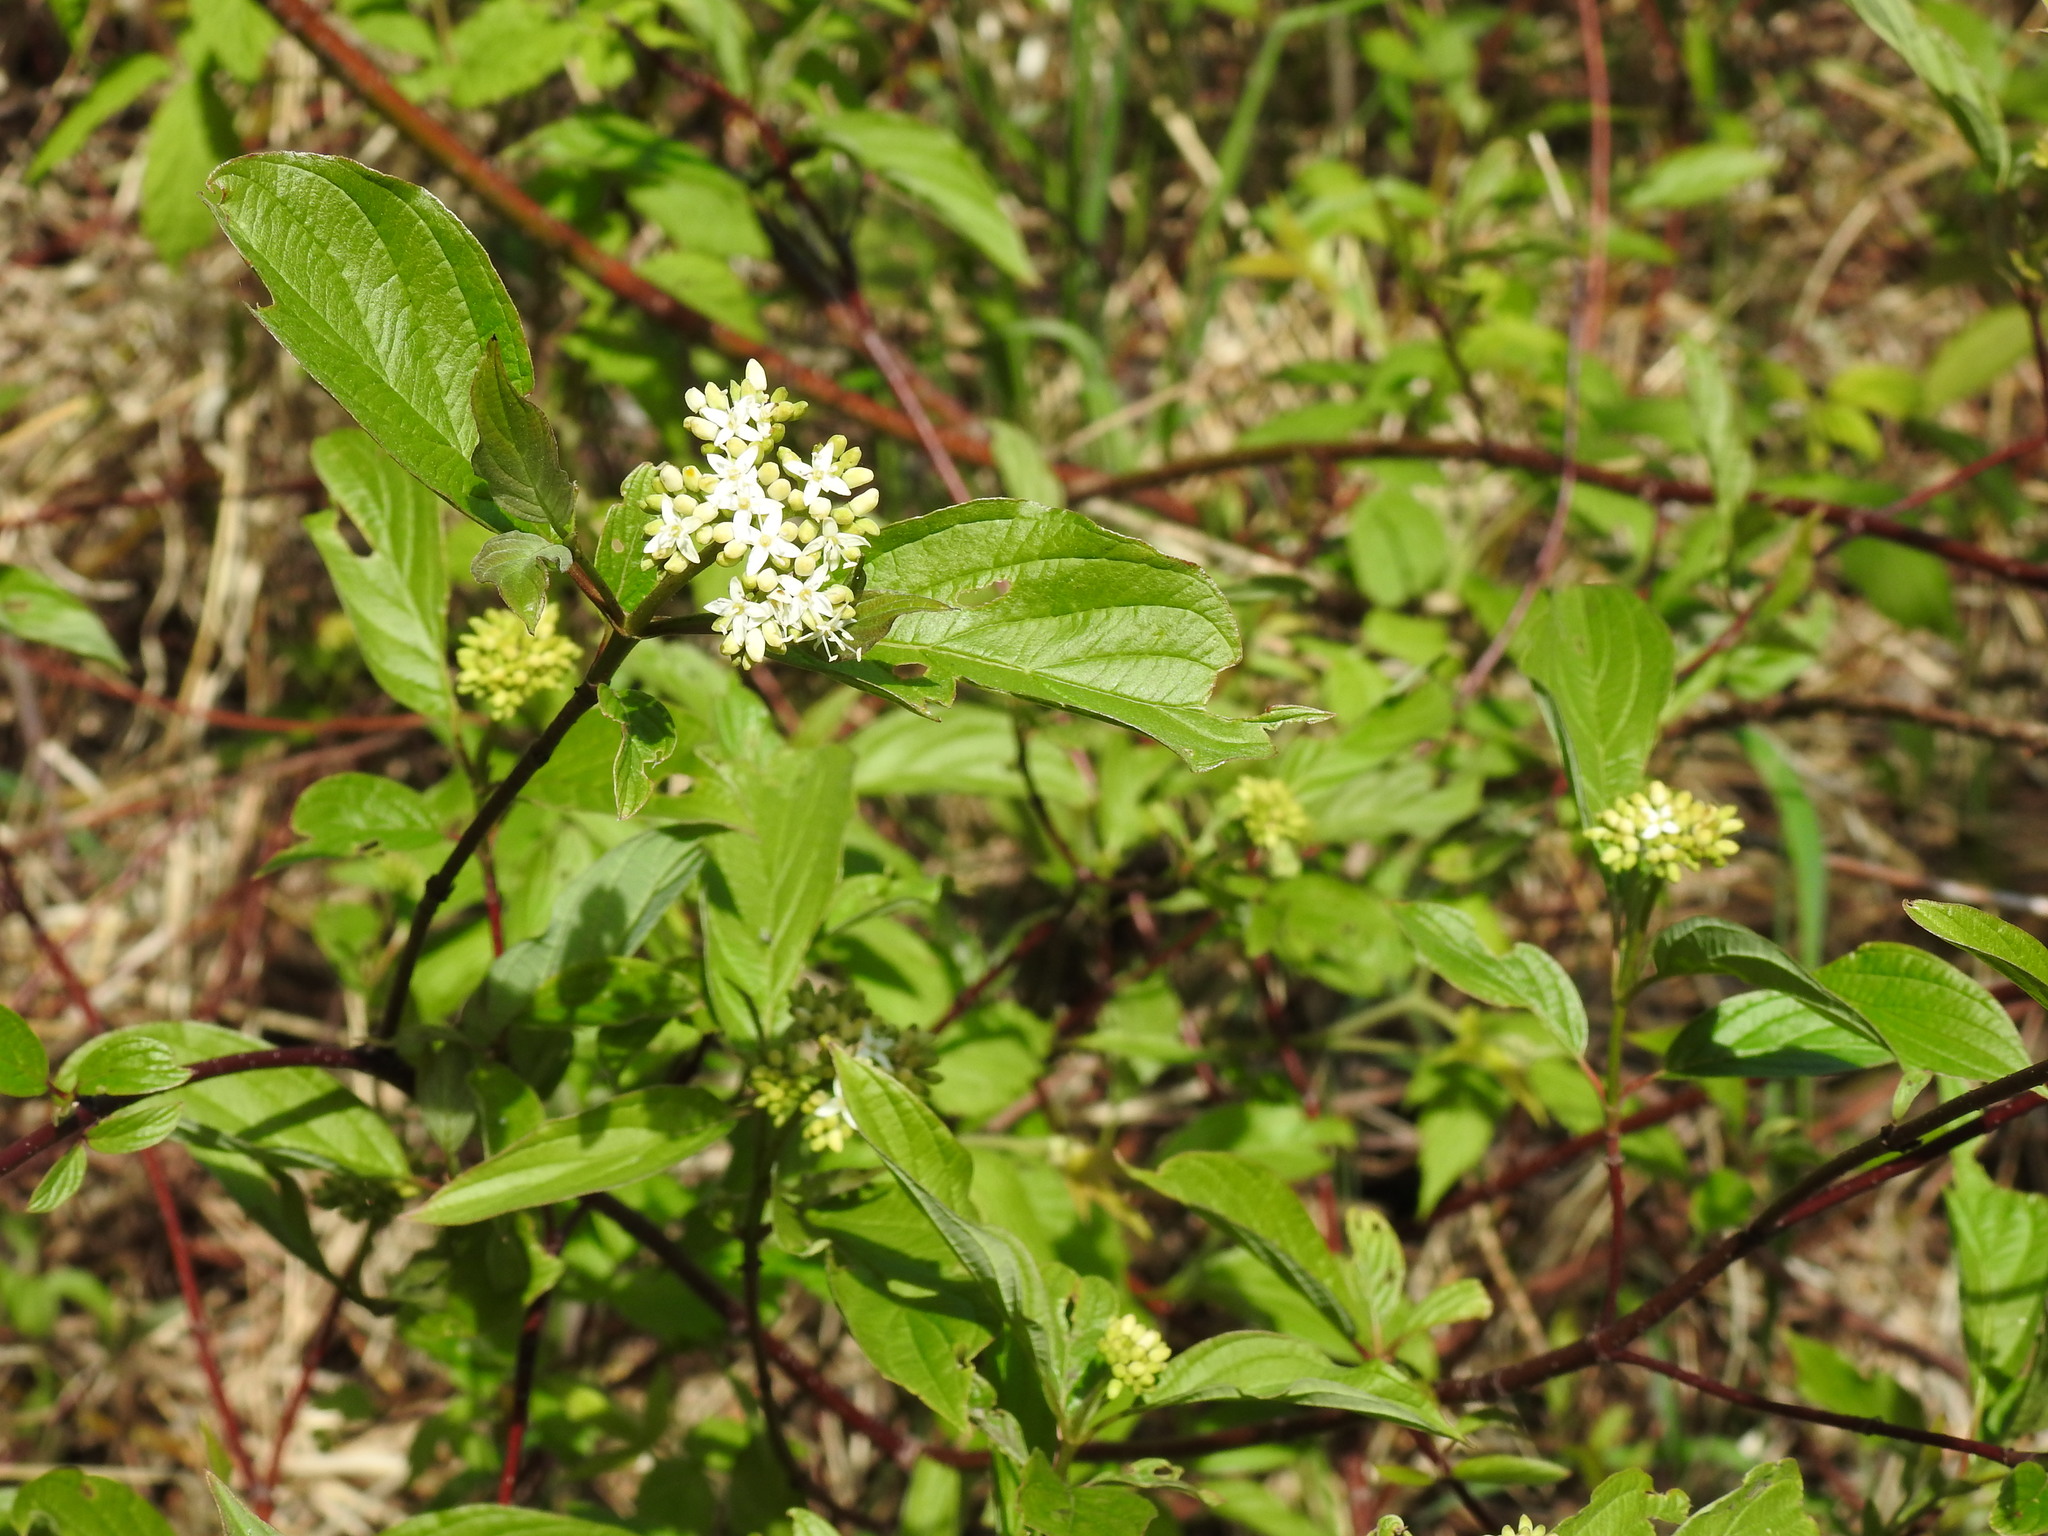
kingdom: Plantae
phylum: Tracheophyta
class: Magnoliopsida
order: Cornales
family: Cornaceae
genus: Cornus
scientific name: Cornus sericea
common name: Red-osier dogwood
